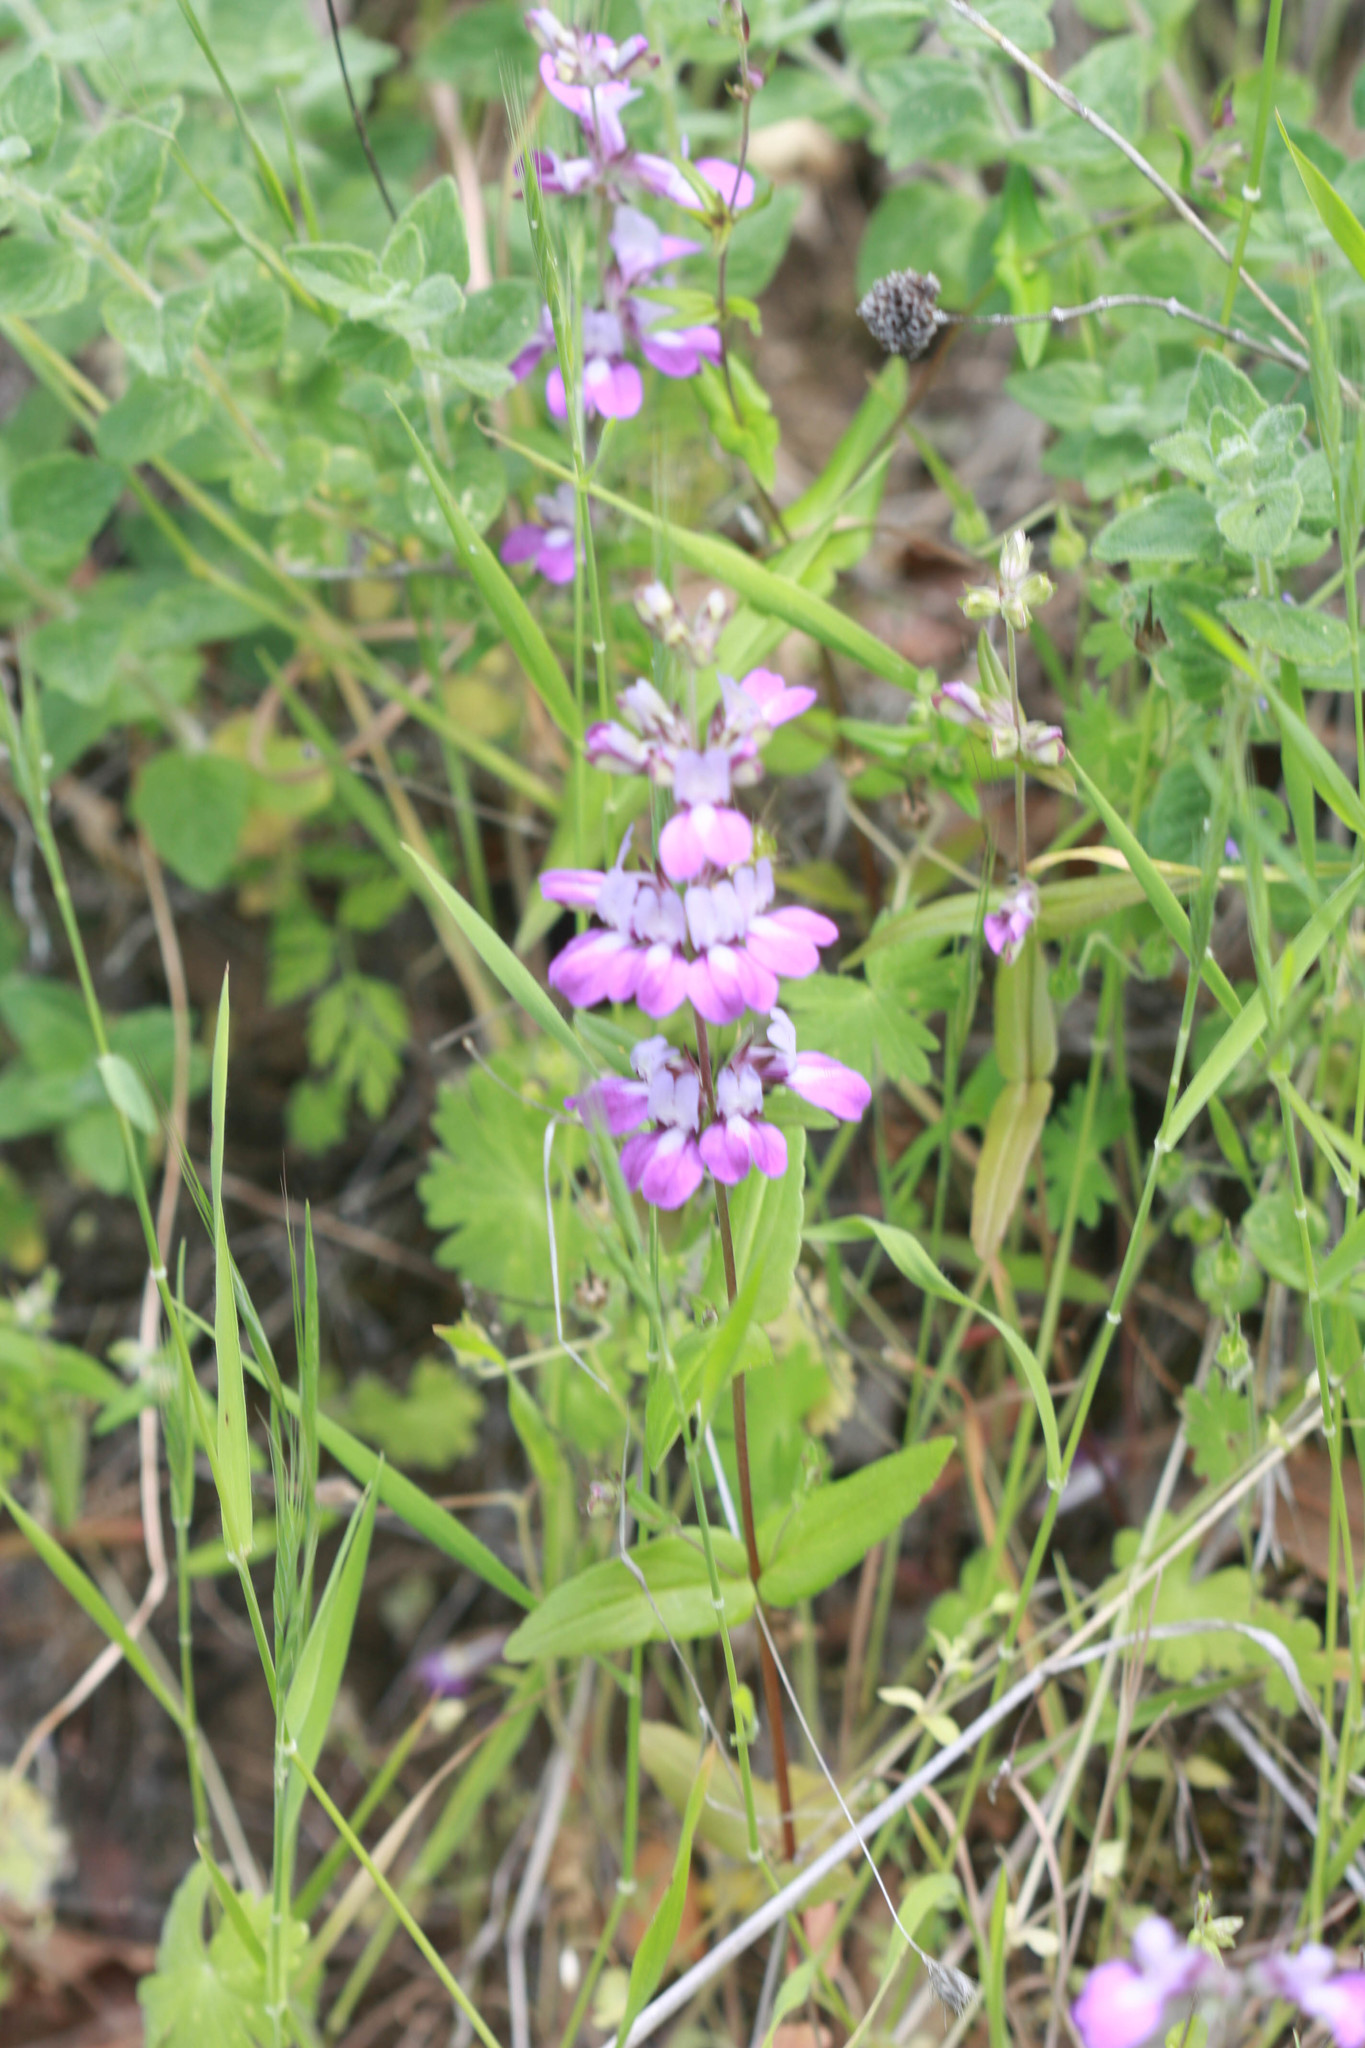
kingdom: Plantae
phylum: Tracheophyta
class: Magnoliopsida
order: Lamiales
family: Plantaginaceae
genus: Collinsia
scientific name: Collinsia heterophylla
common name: Chinese-houses
